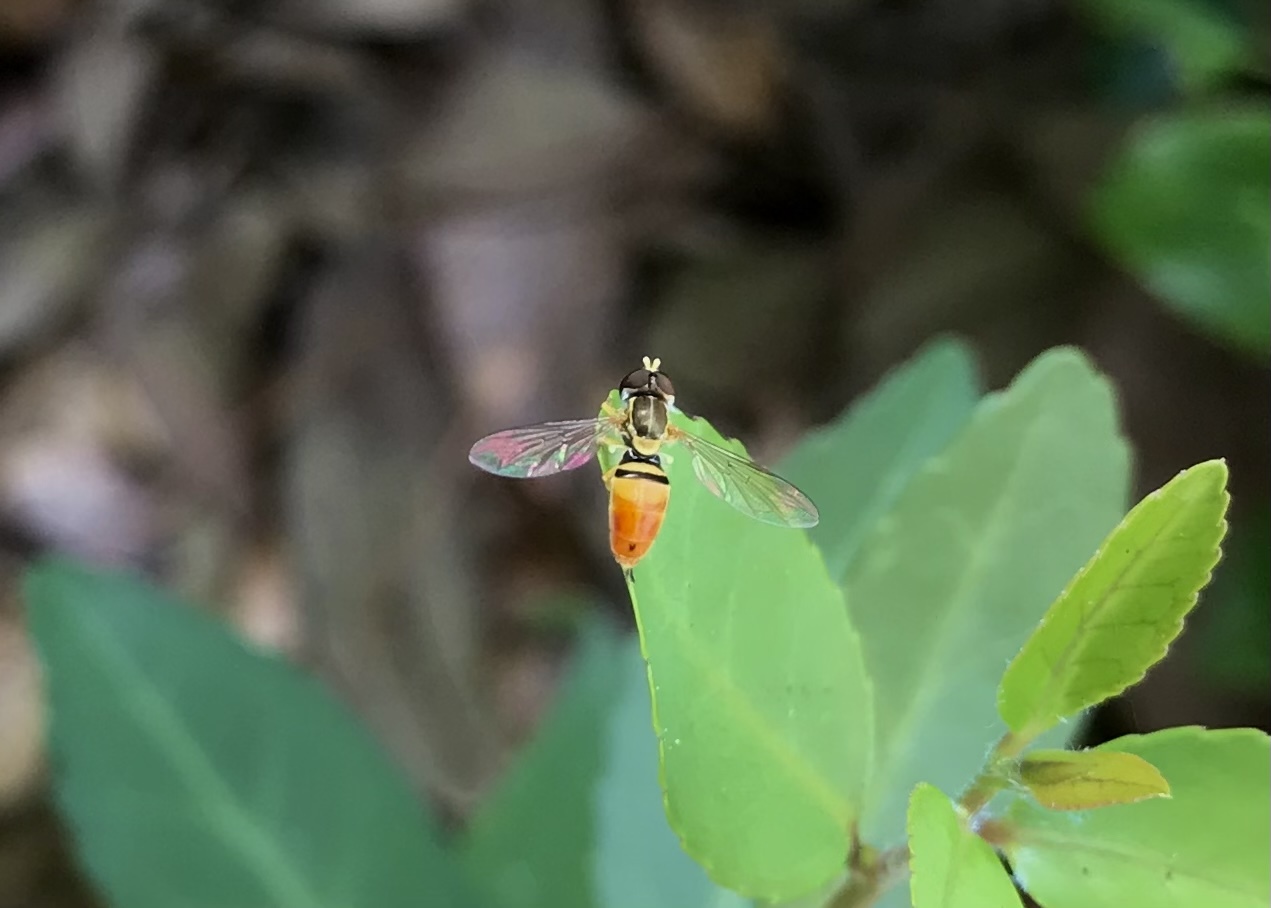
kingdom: Animalia
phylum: Arthropoda
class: Insecta
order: Diptera
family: Syrphidae
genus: Toxomerus
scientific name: Toxomerus marginatus
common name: Syrphid fly
